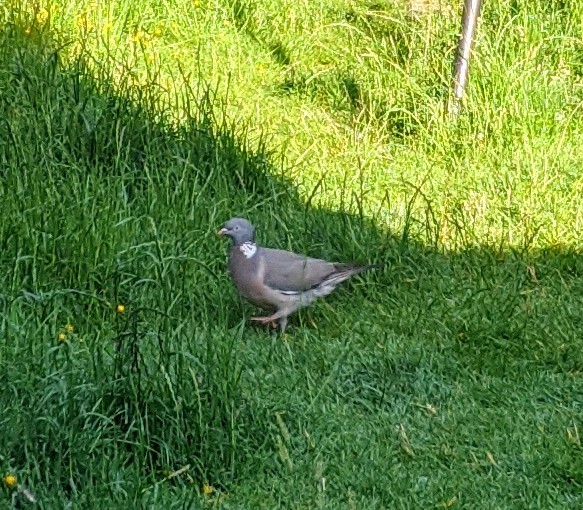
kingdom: Animalia
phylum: Chordata
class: Aves
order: Columbiformes
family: Columbidae
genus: Columba
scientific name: Columba palumbus
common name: Common wood pigeon
